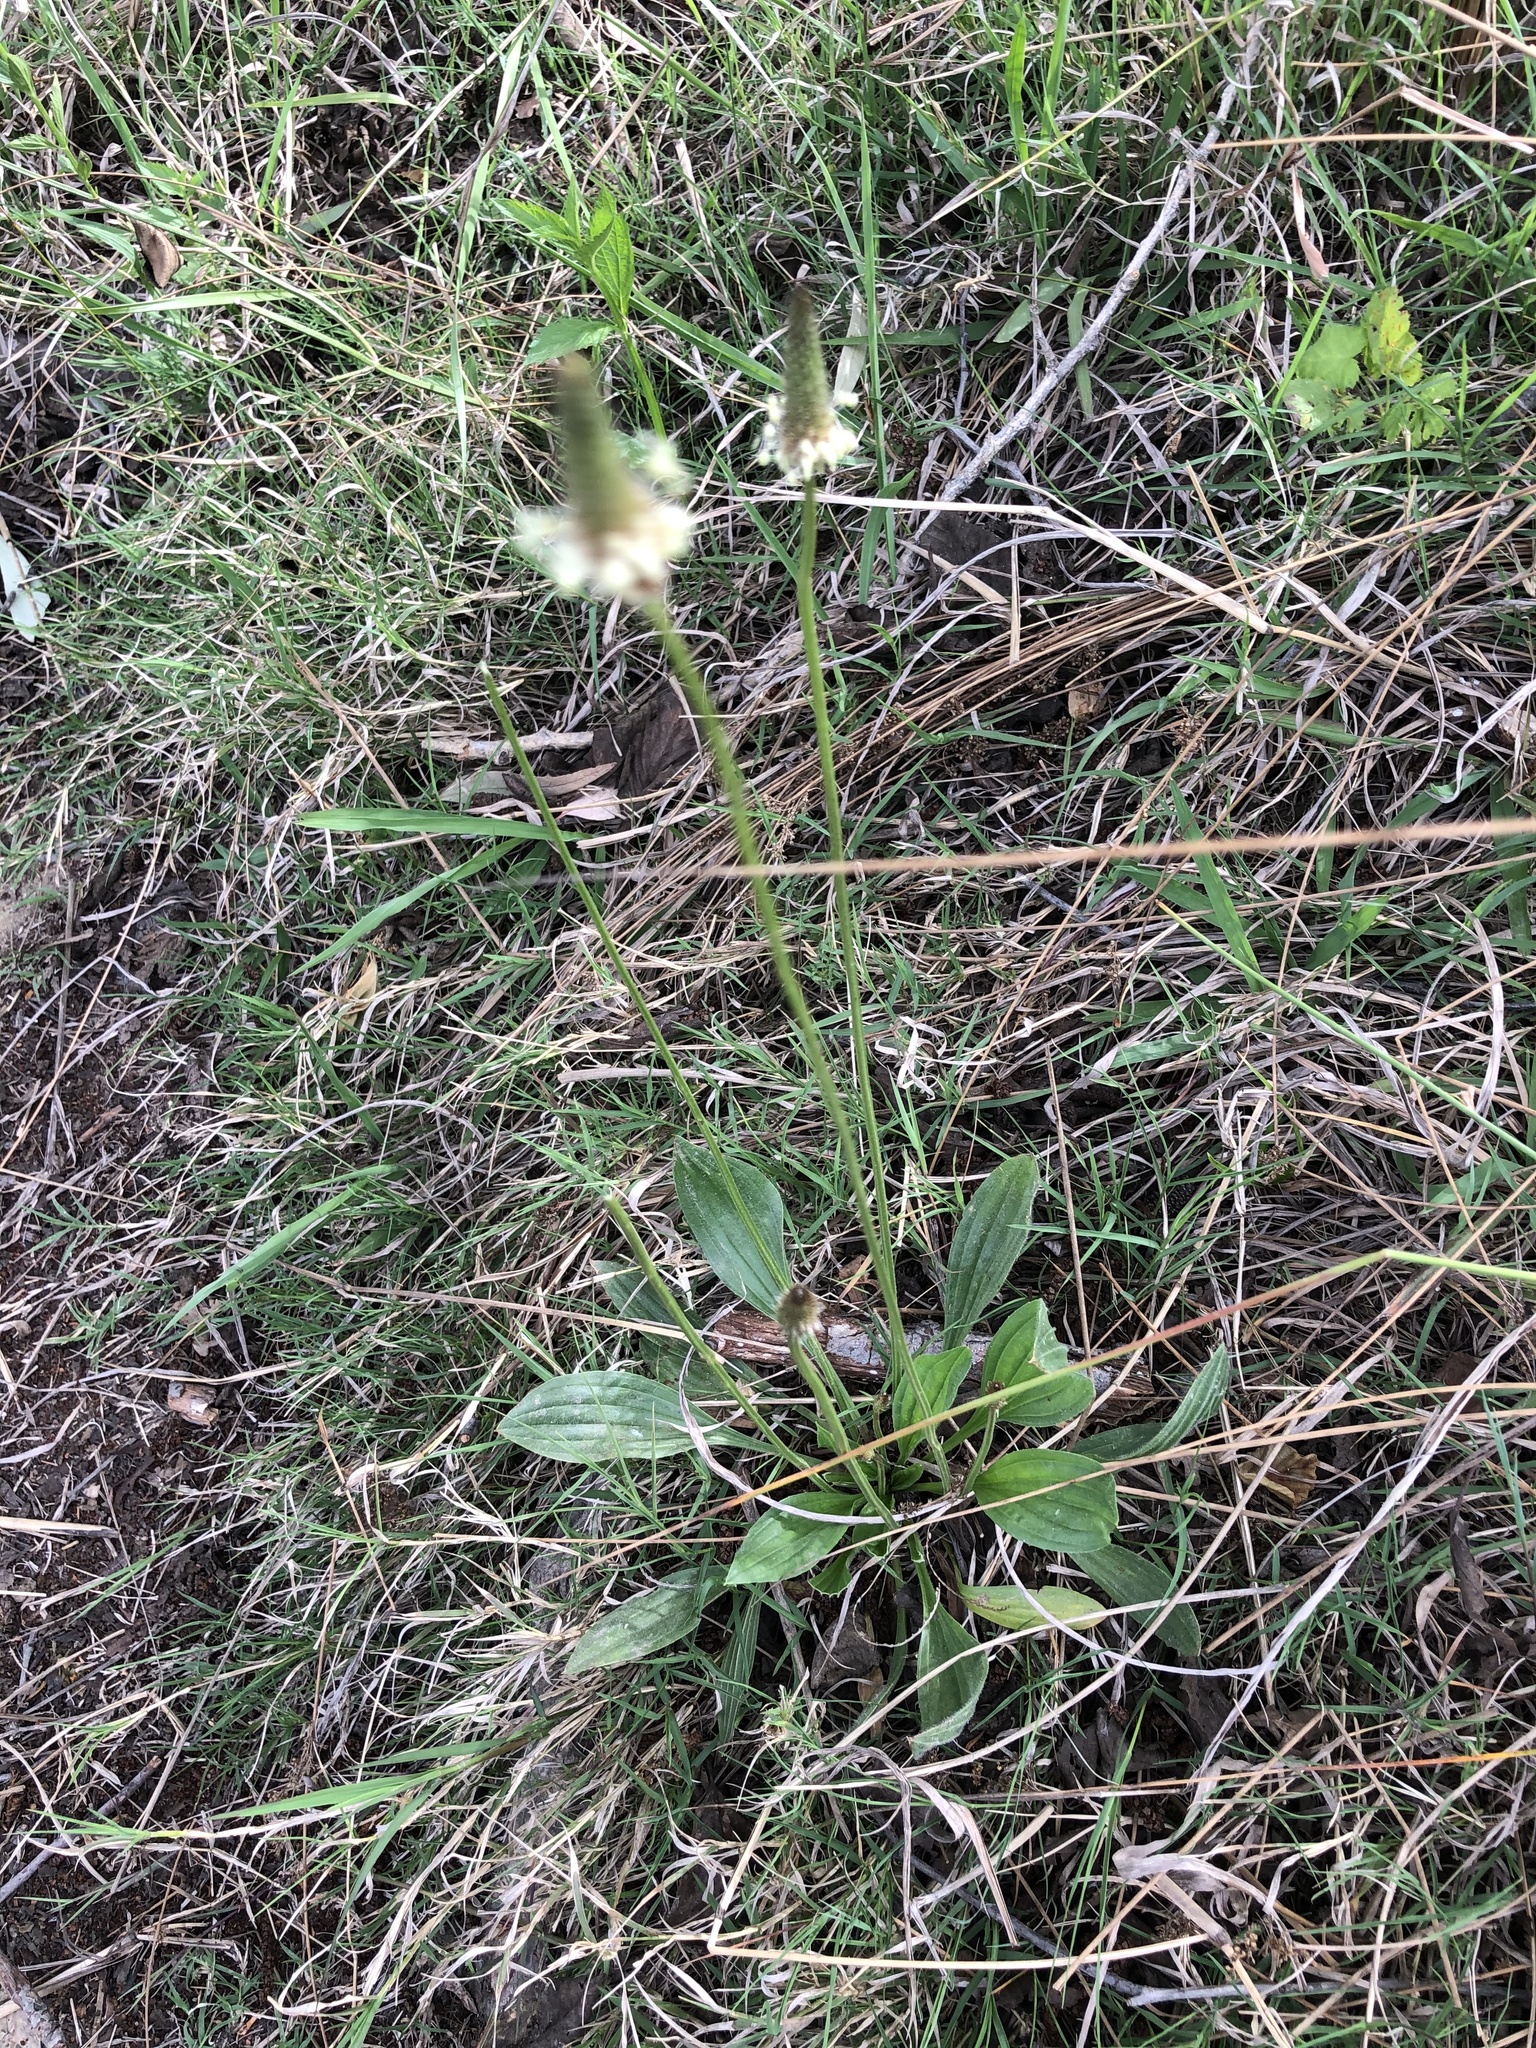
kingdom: Plantae
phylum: Tracheophyta
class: Magnoliopsida
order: Lamiales
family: Plantaginaceae
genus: Plantago
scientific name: Plantago lanceolata
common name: Ribwort plantain
